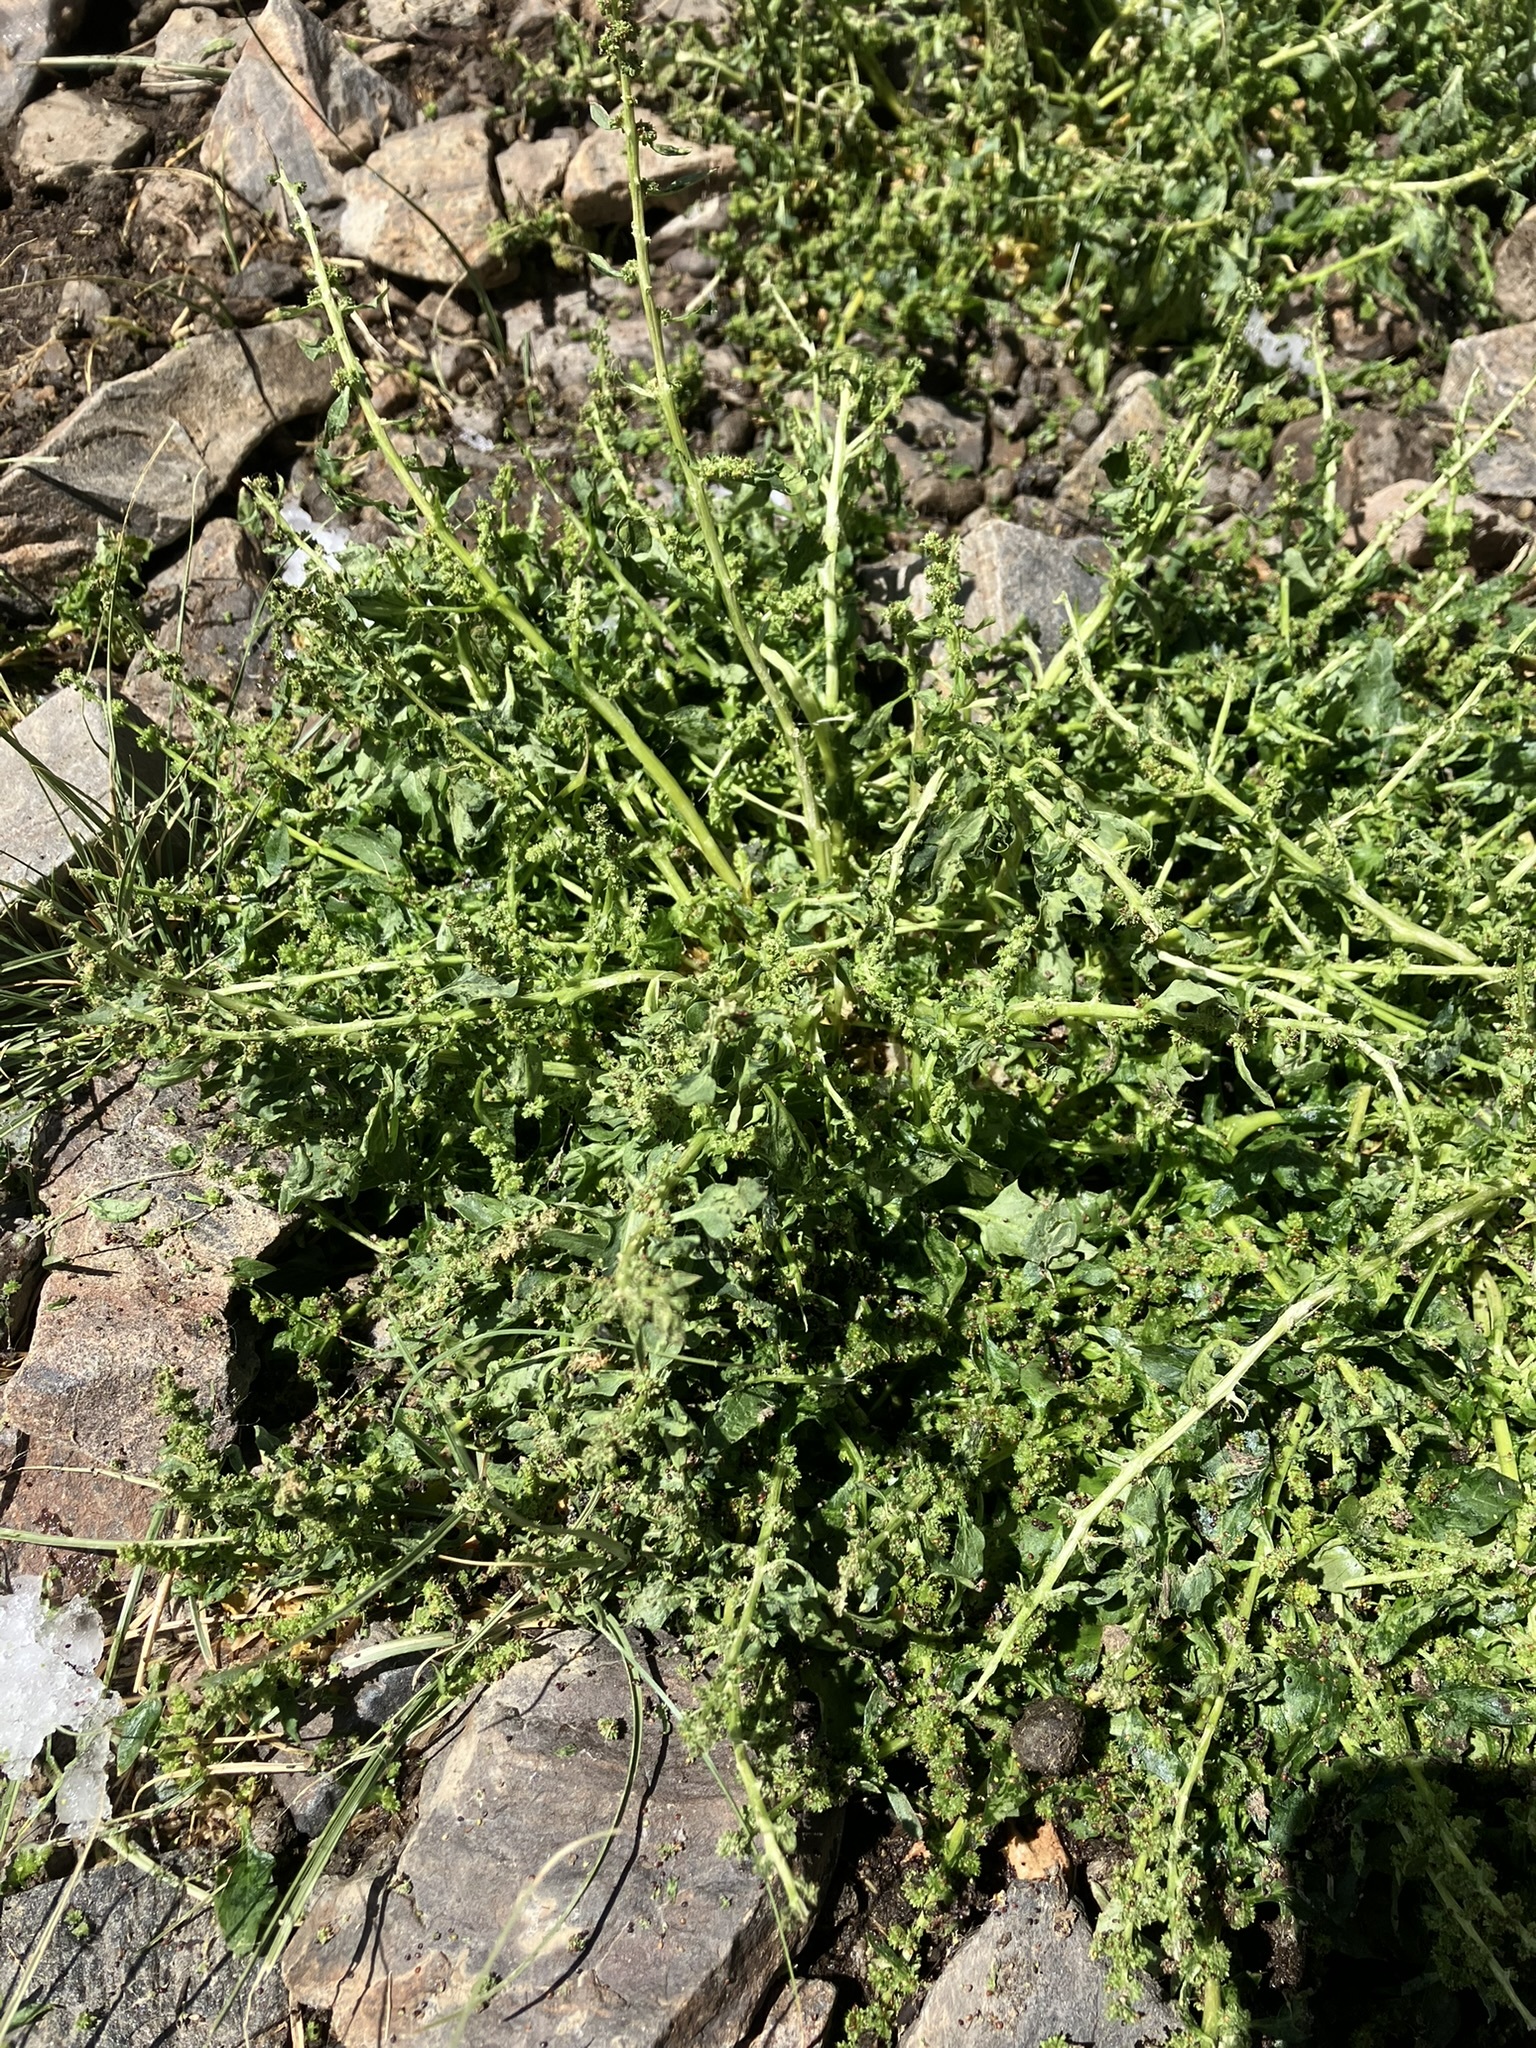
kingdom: Plantae
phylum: Tracheophyta
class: Magnoliopsida
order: Caryophyllales
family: Amaranthaceae
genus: Blitum
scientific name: Blitum capitatum
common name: Strawberry-blight
